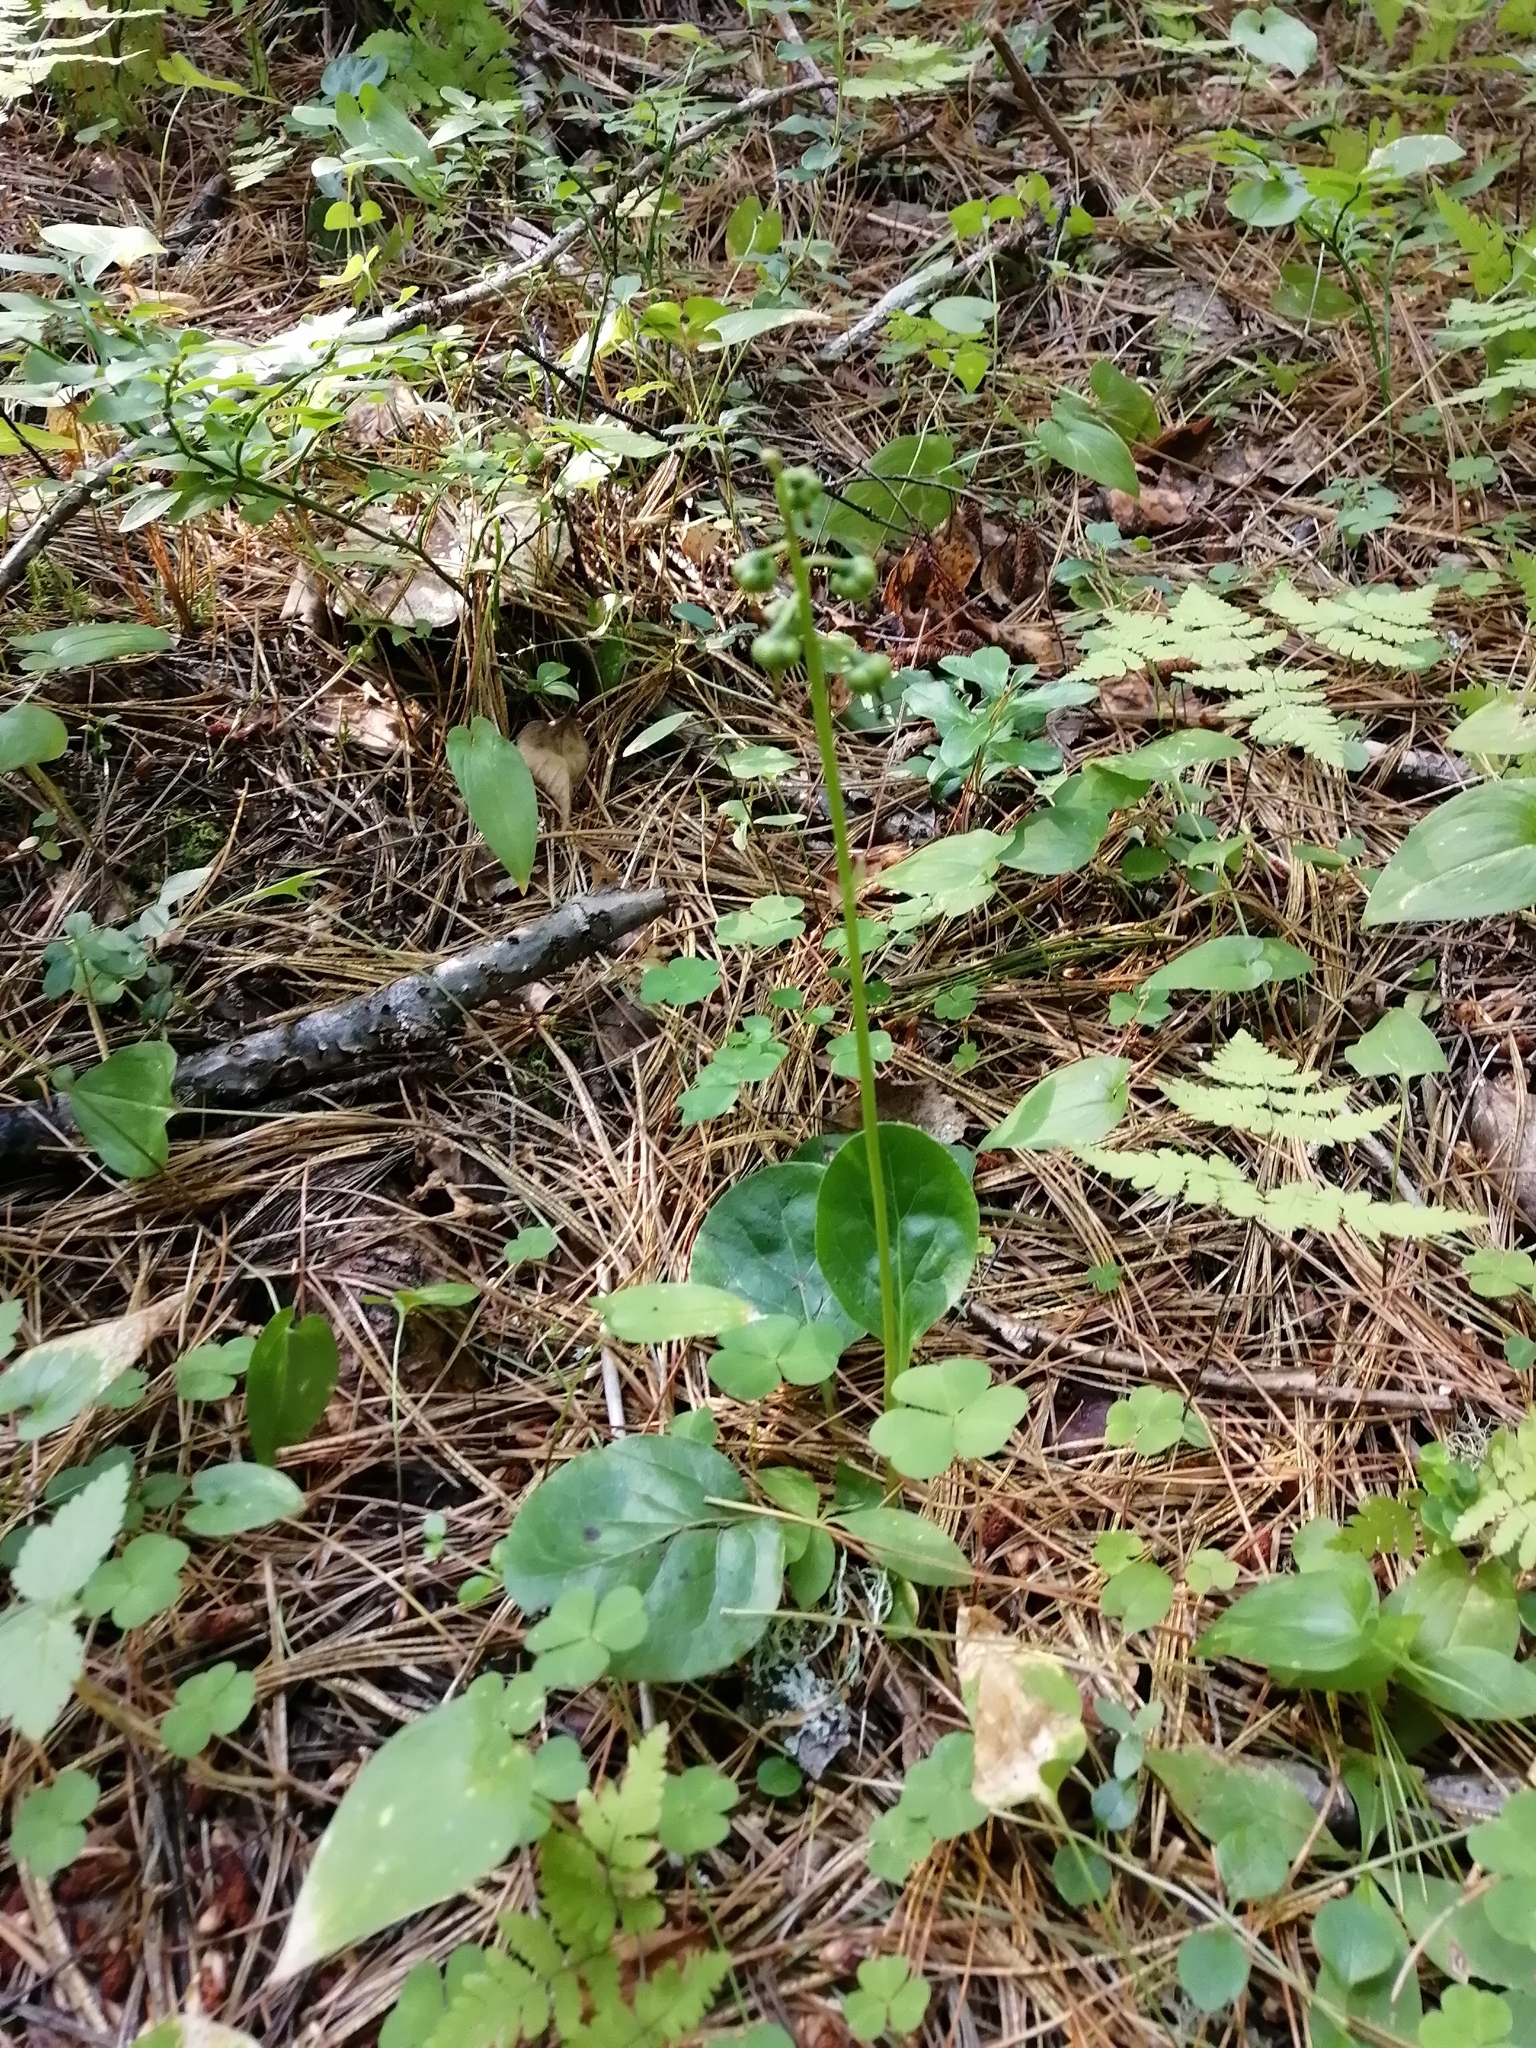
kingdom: Plantae
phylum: Tracheophyta
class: Magnoliopsida
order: Ericales
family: Ericaceae
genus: Pyrola
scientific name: Pyrola minor
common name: Common wintergreen
